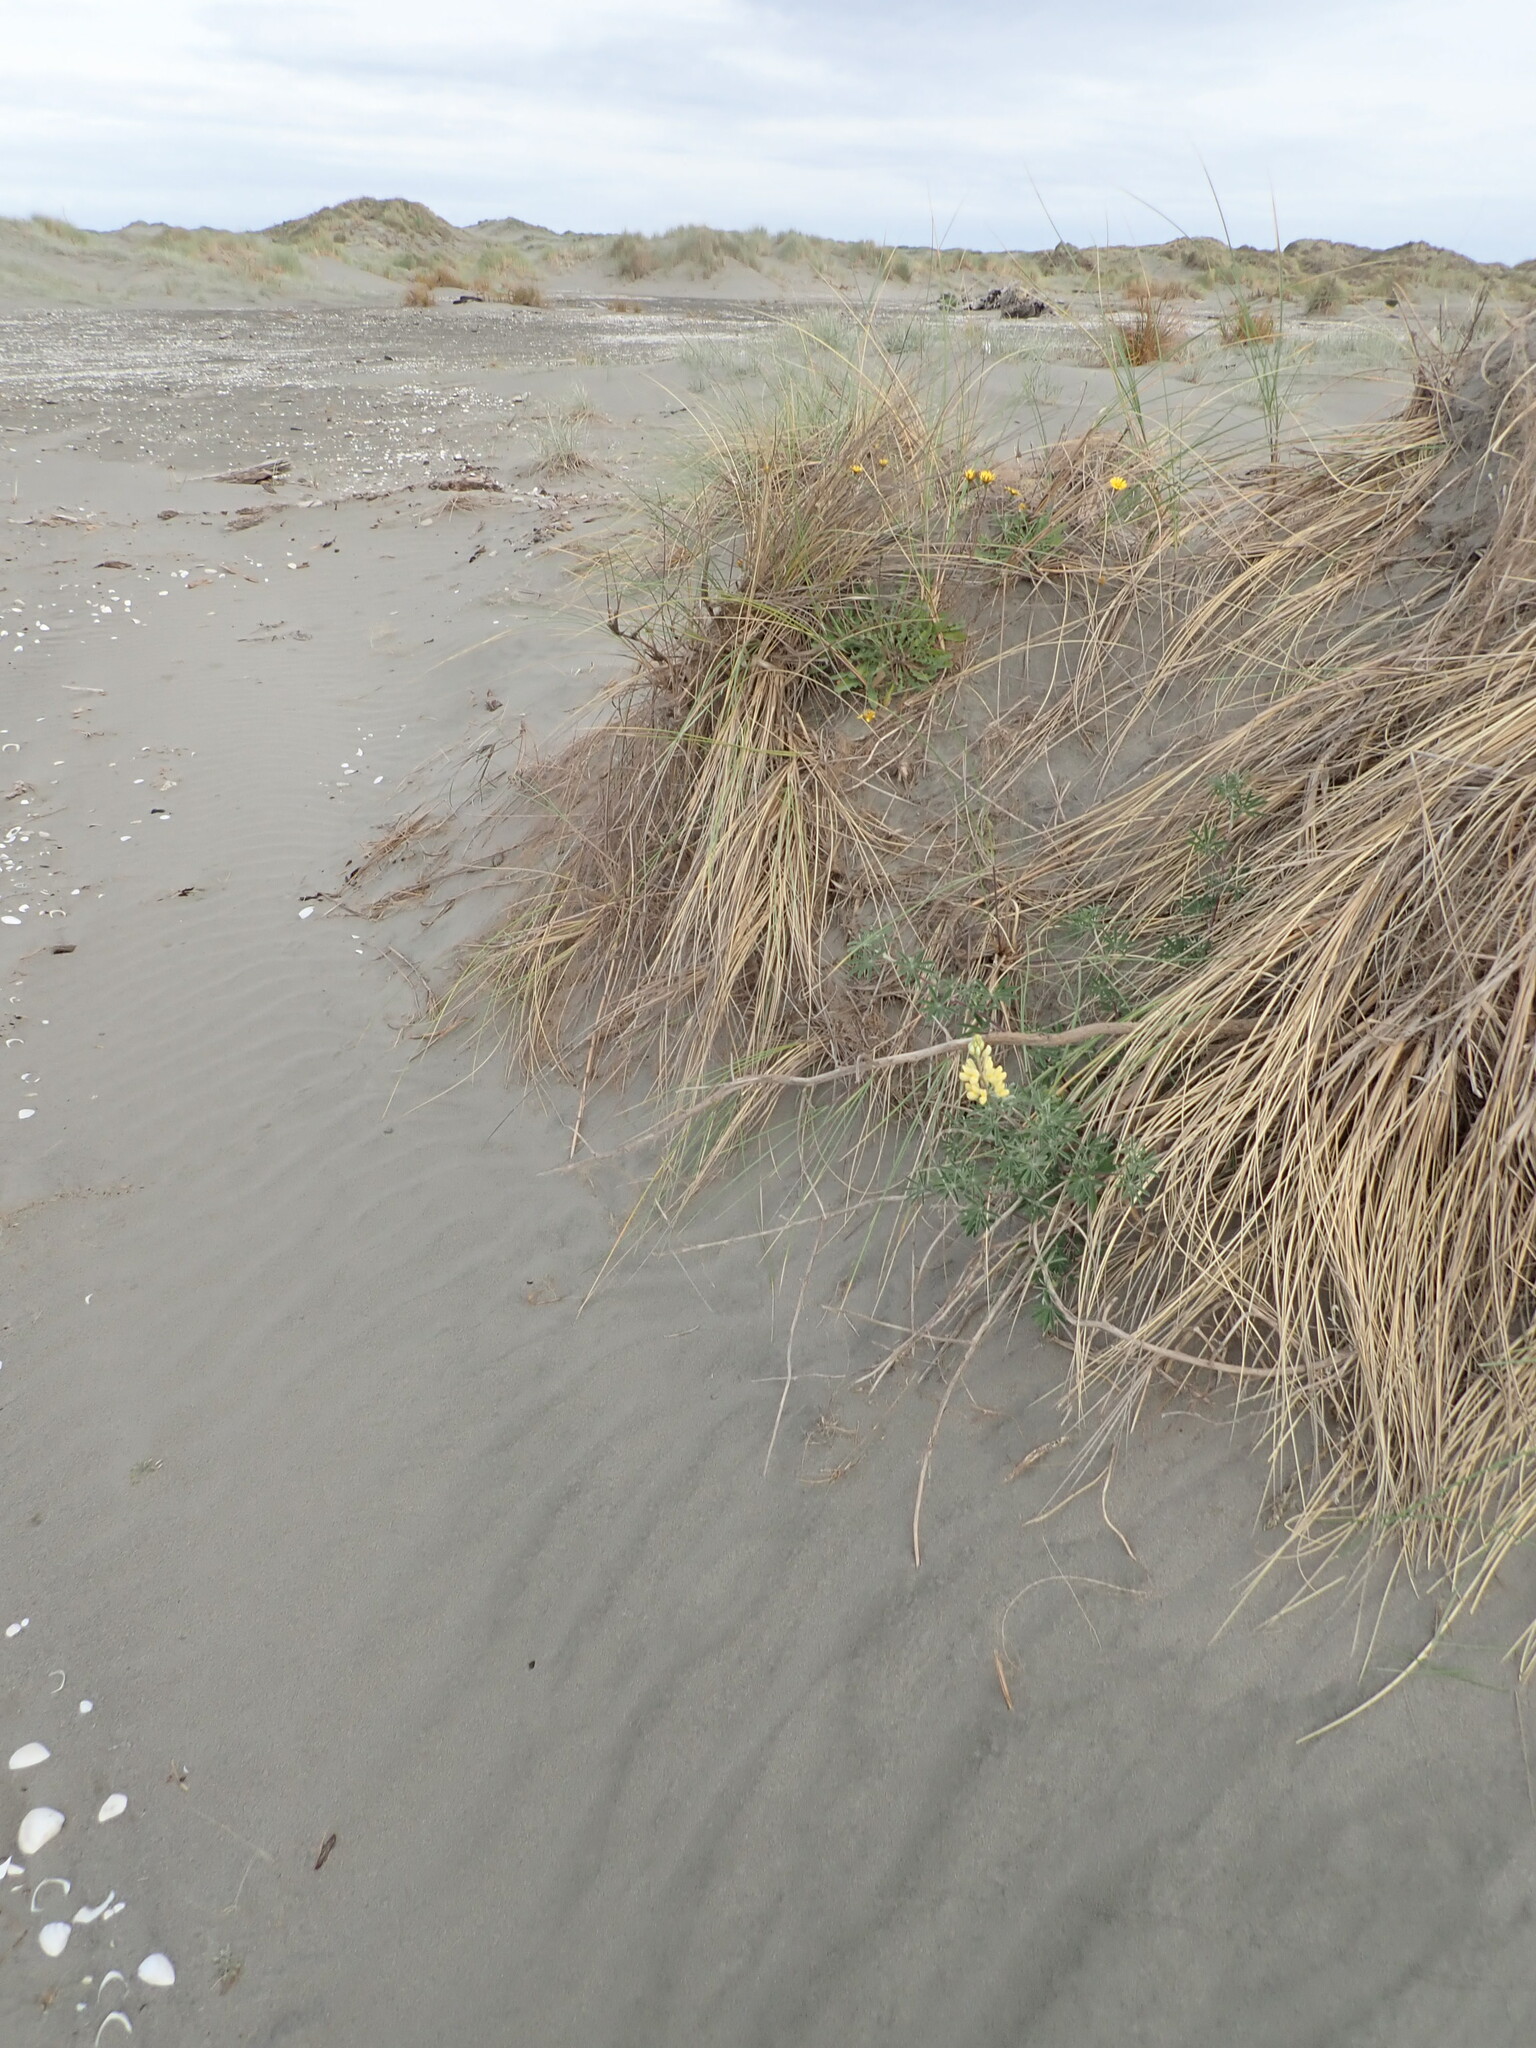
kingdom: Plantae
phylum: Tracheophyta
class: Magnoliopsida
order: Fabales
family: Fabaceae
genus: Lupinus
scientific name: Lupinus arboreus
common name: Yellow bush lupine
